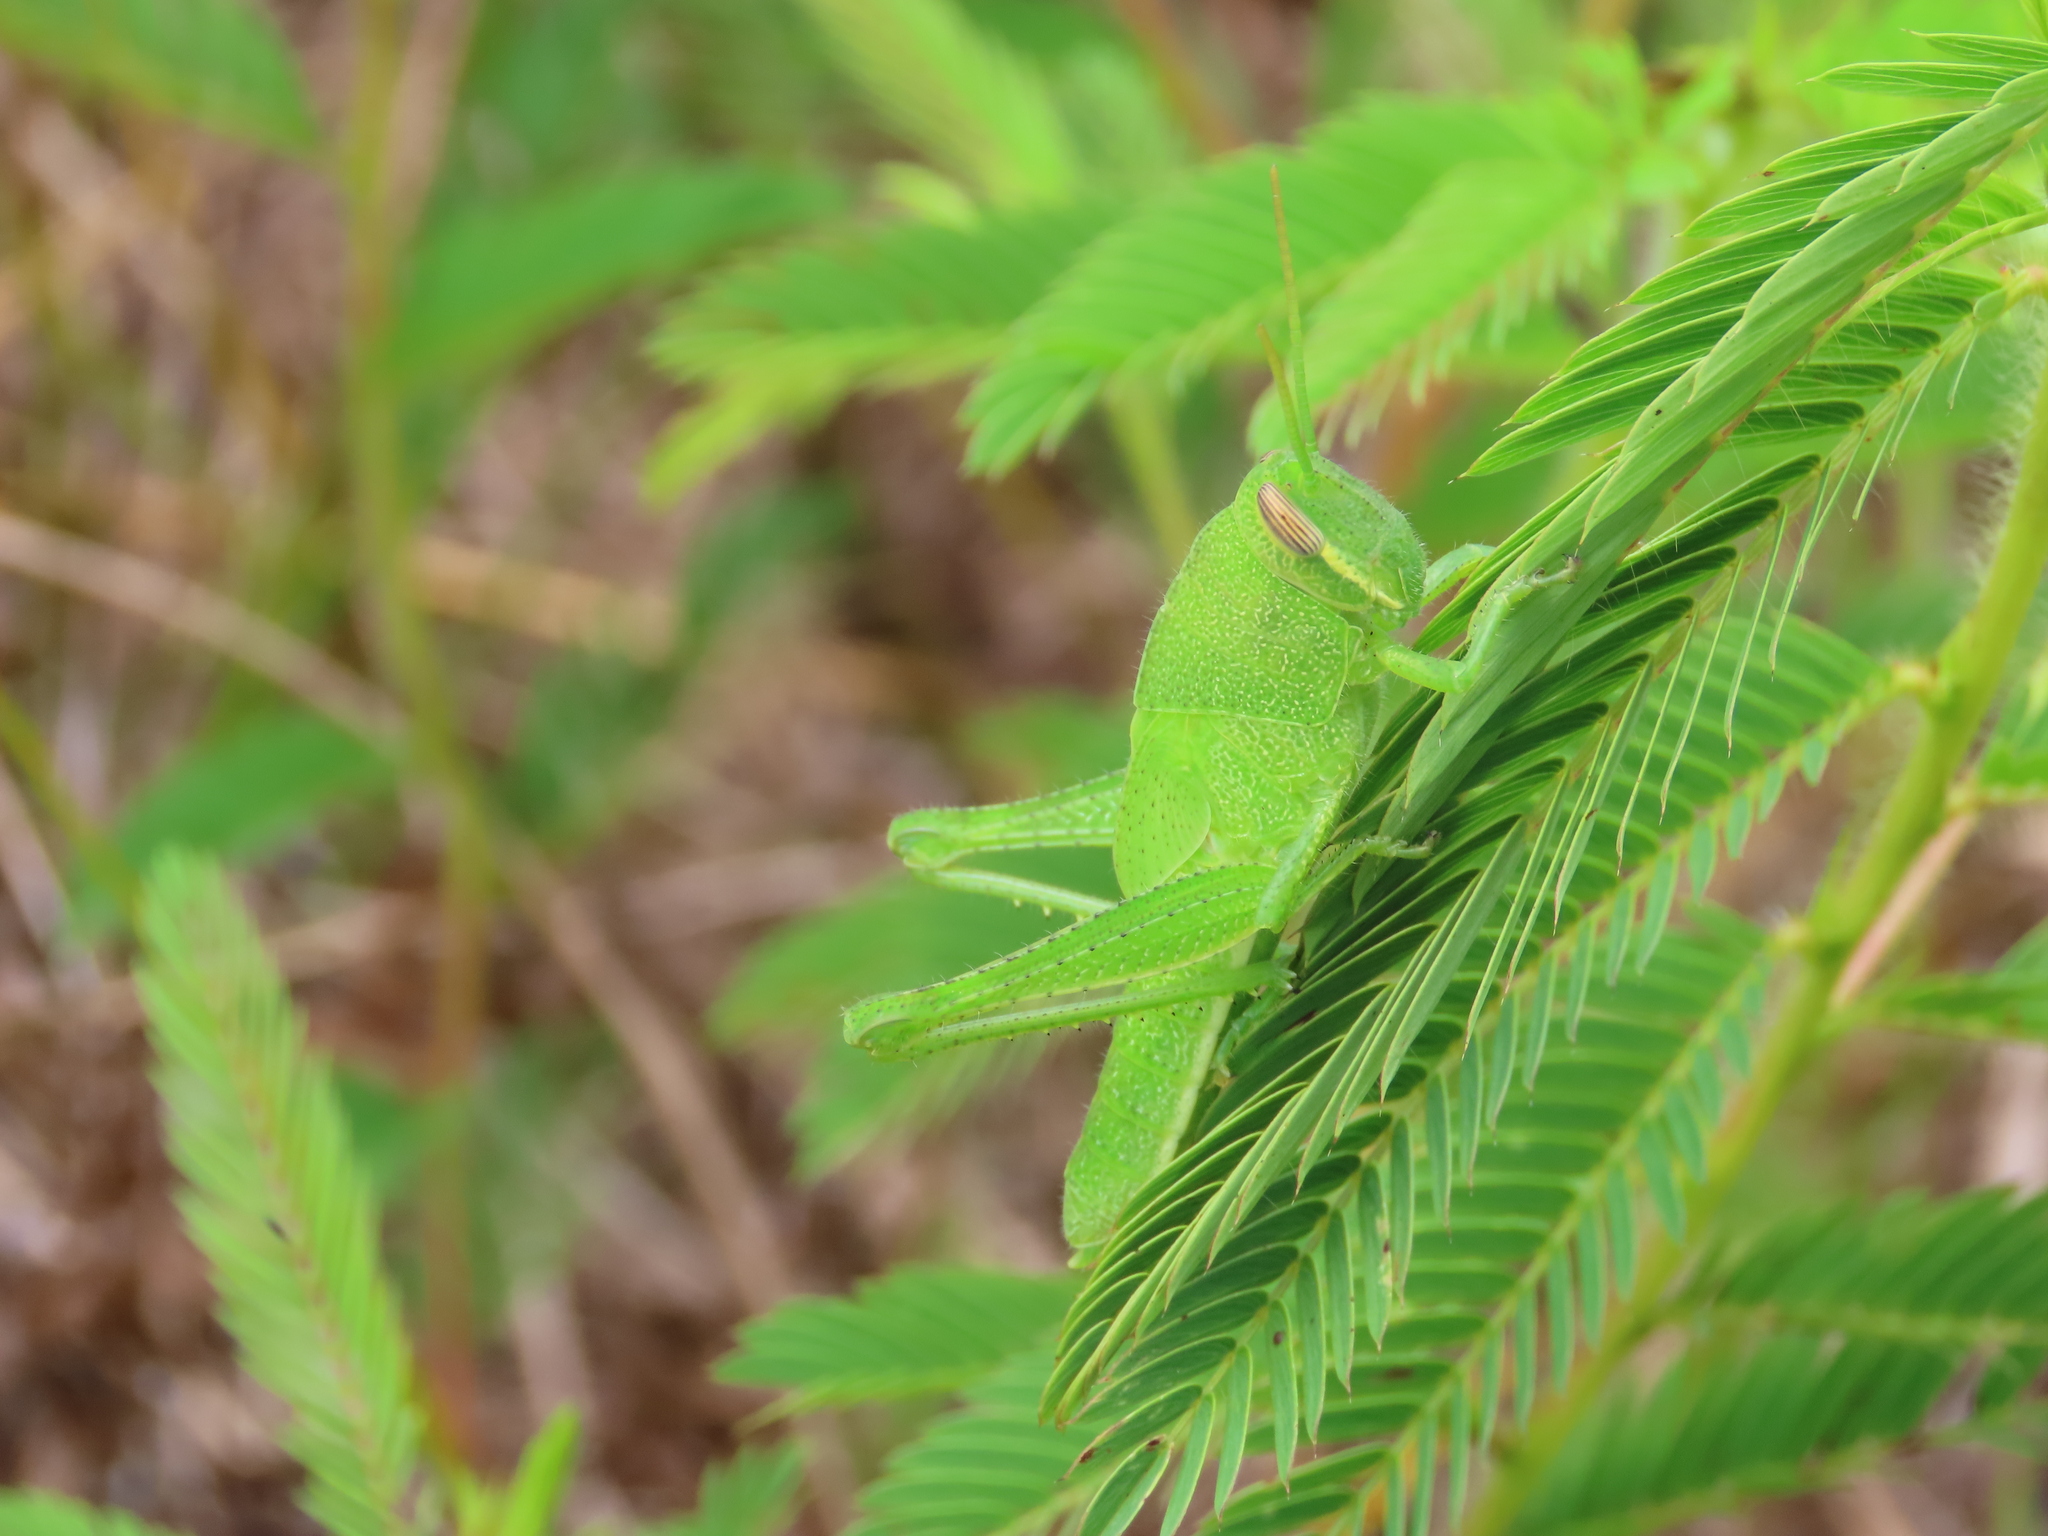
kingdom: Animalia
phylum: Arthropoda
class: Insecta
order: Orthoptera
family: Acrididae
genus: Schistocerca
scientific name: Schistocerca damnifica
